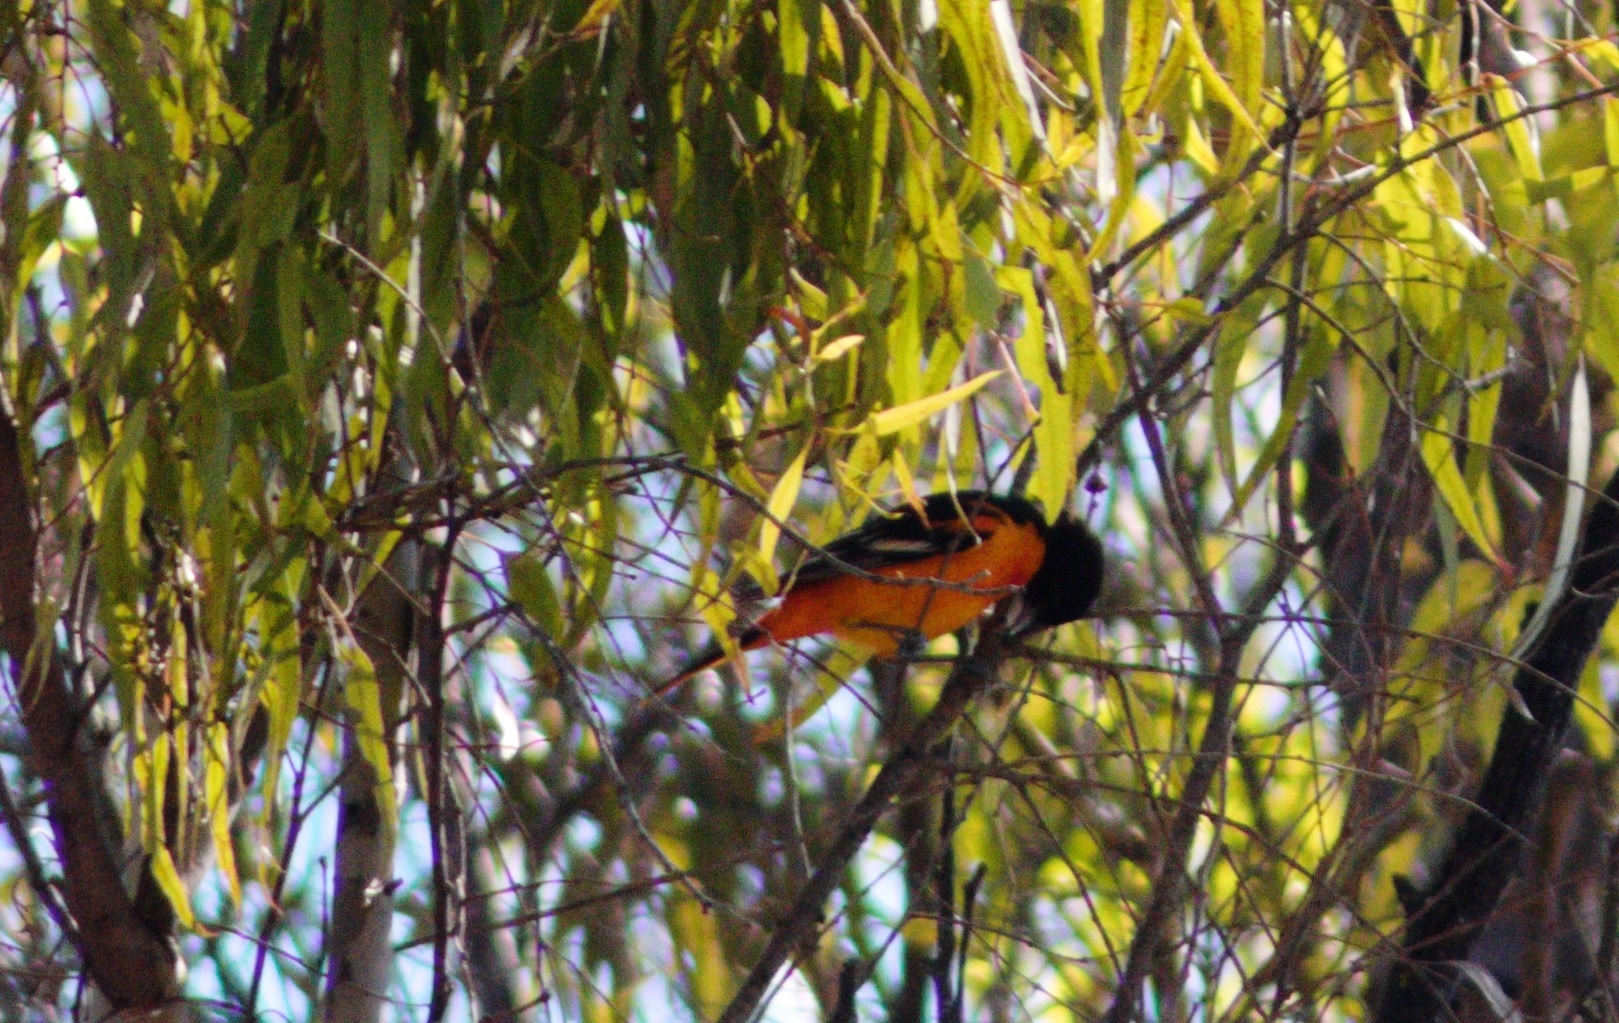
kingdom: Animalia
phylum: Chordata
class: Aves
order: Passeriformes
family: Icteridae
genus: Icterus
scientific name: Icterus galbula
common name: Baltimore oriole
